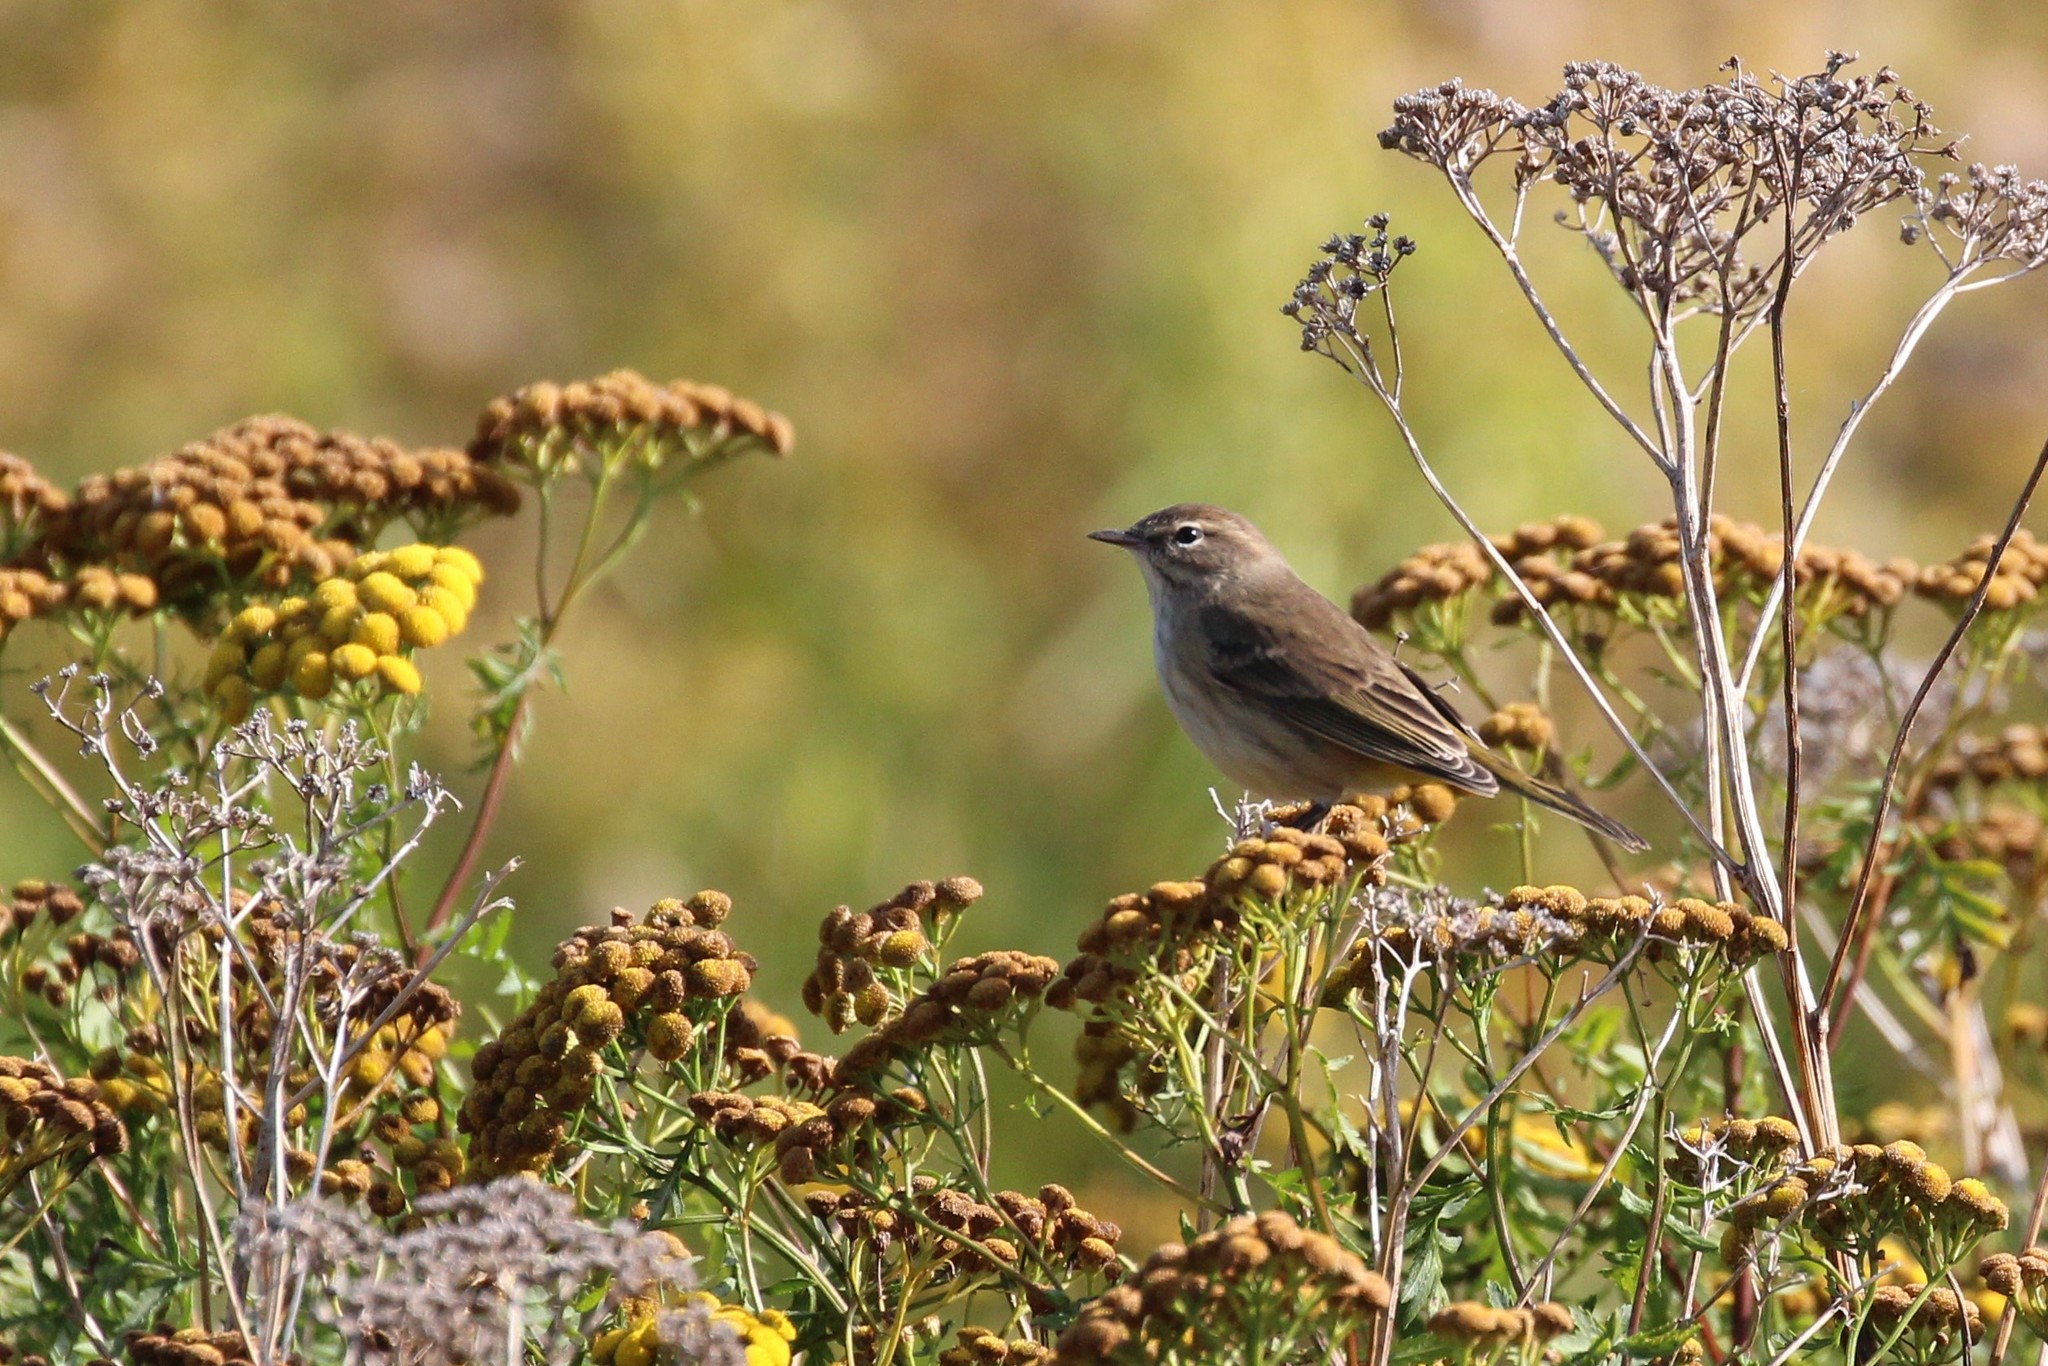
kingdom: Animalia
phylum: Chordata
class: Aves
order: Passeriformes
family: Parulidae
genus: Setophaga
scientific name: Setophaga palmarum
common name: Palm warbler
